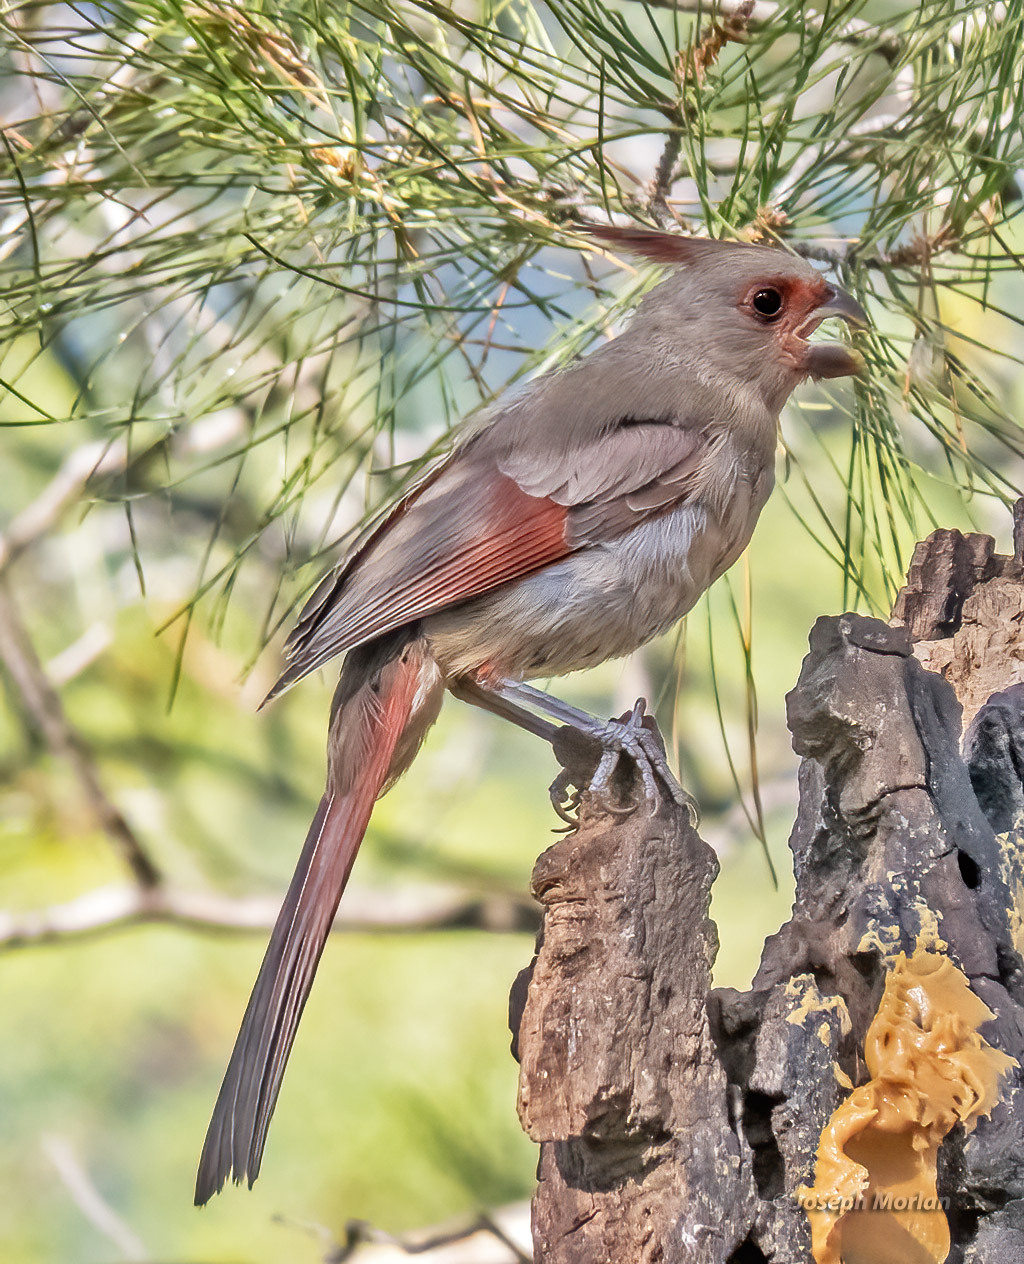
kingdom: Animalia
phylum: Chordata
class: Aves
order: Passeriformes
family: Cardinalidae
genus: Cardinalis
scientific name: Cardinalis sinuatus
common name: Pyrrhuloxia
